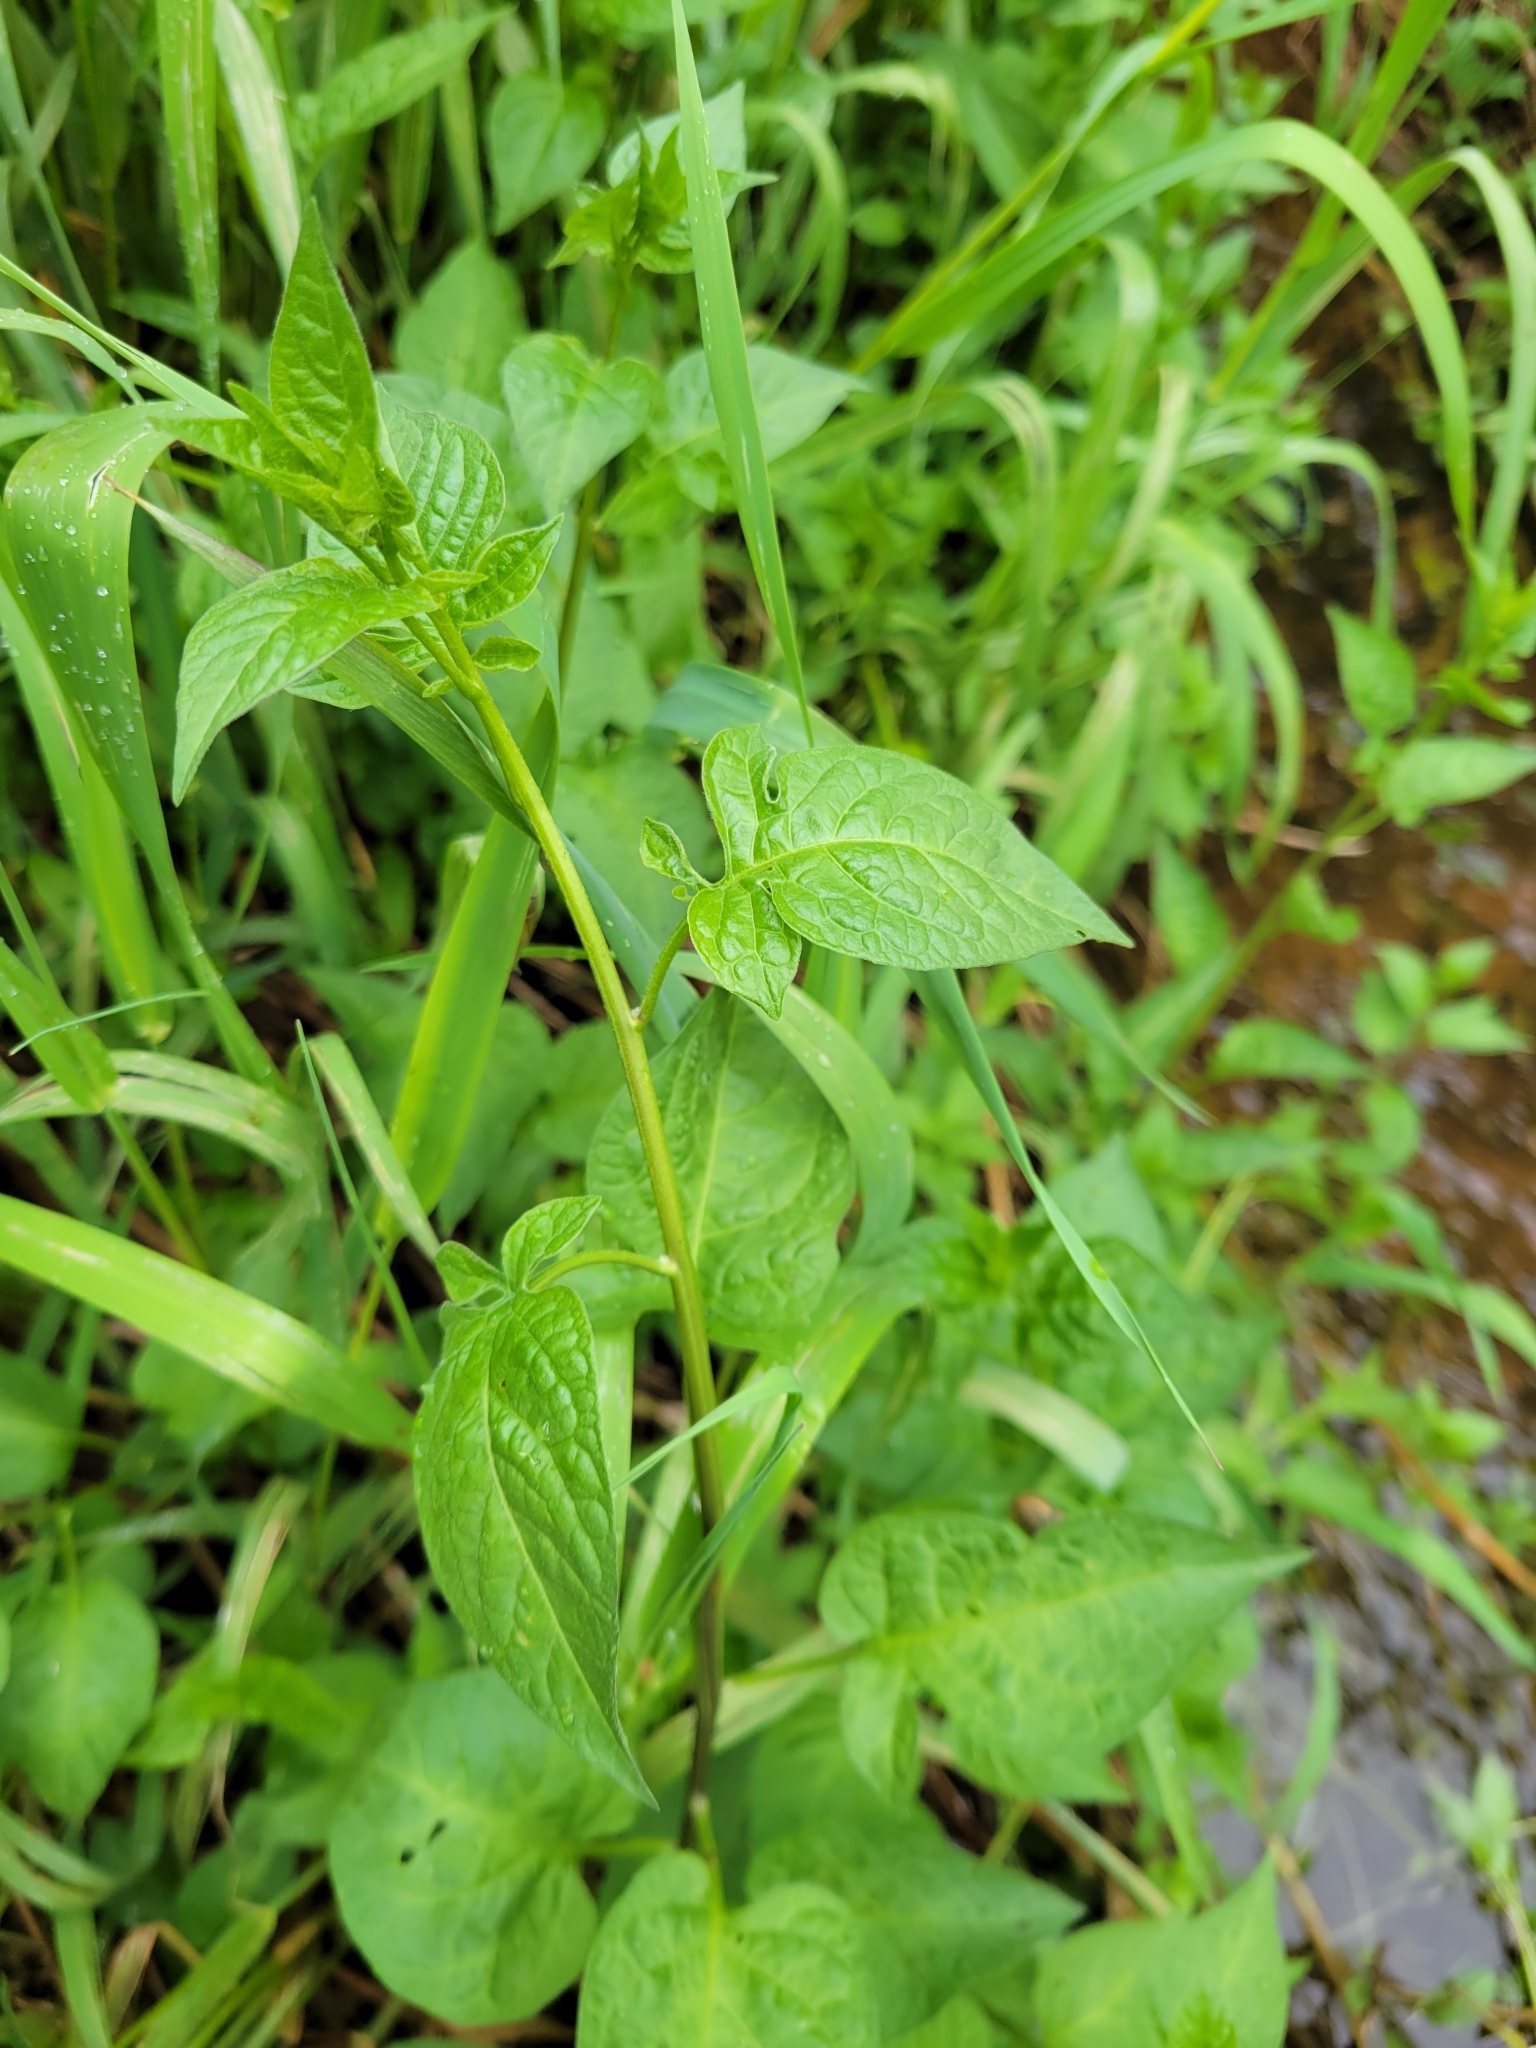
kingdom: Plantae
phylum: Tracheophyta
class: Magnoliopsida
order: Solanales
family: Solanaceae
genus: Solanum
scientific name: Solanum dulcamara
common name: Climbing nightshade
